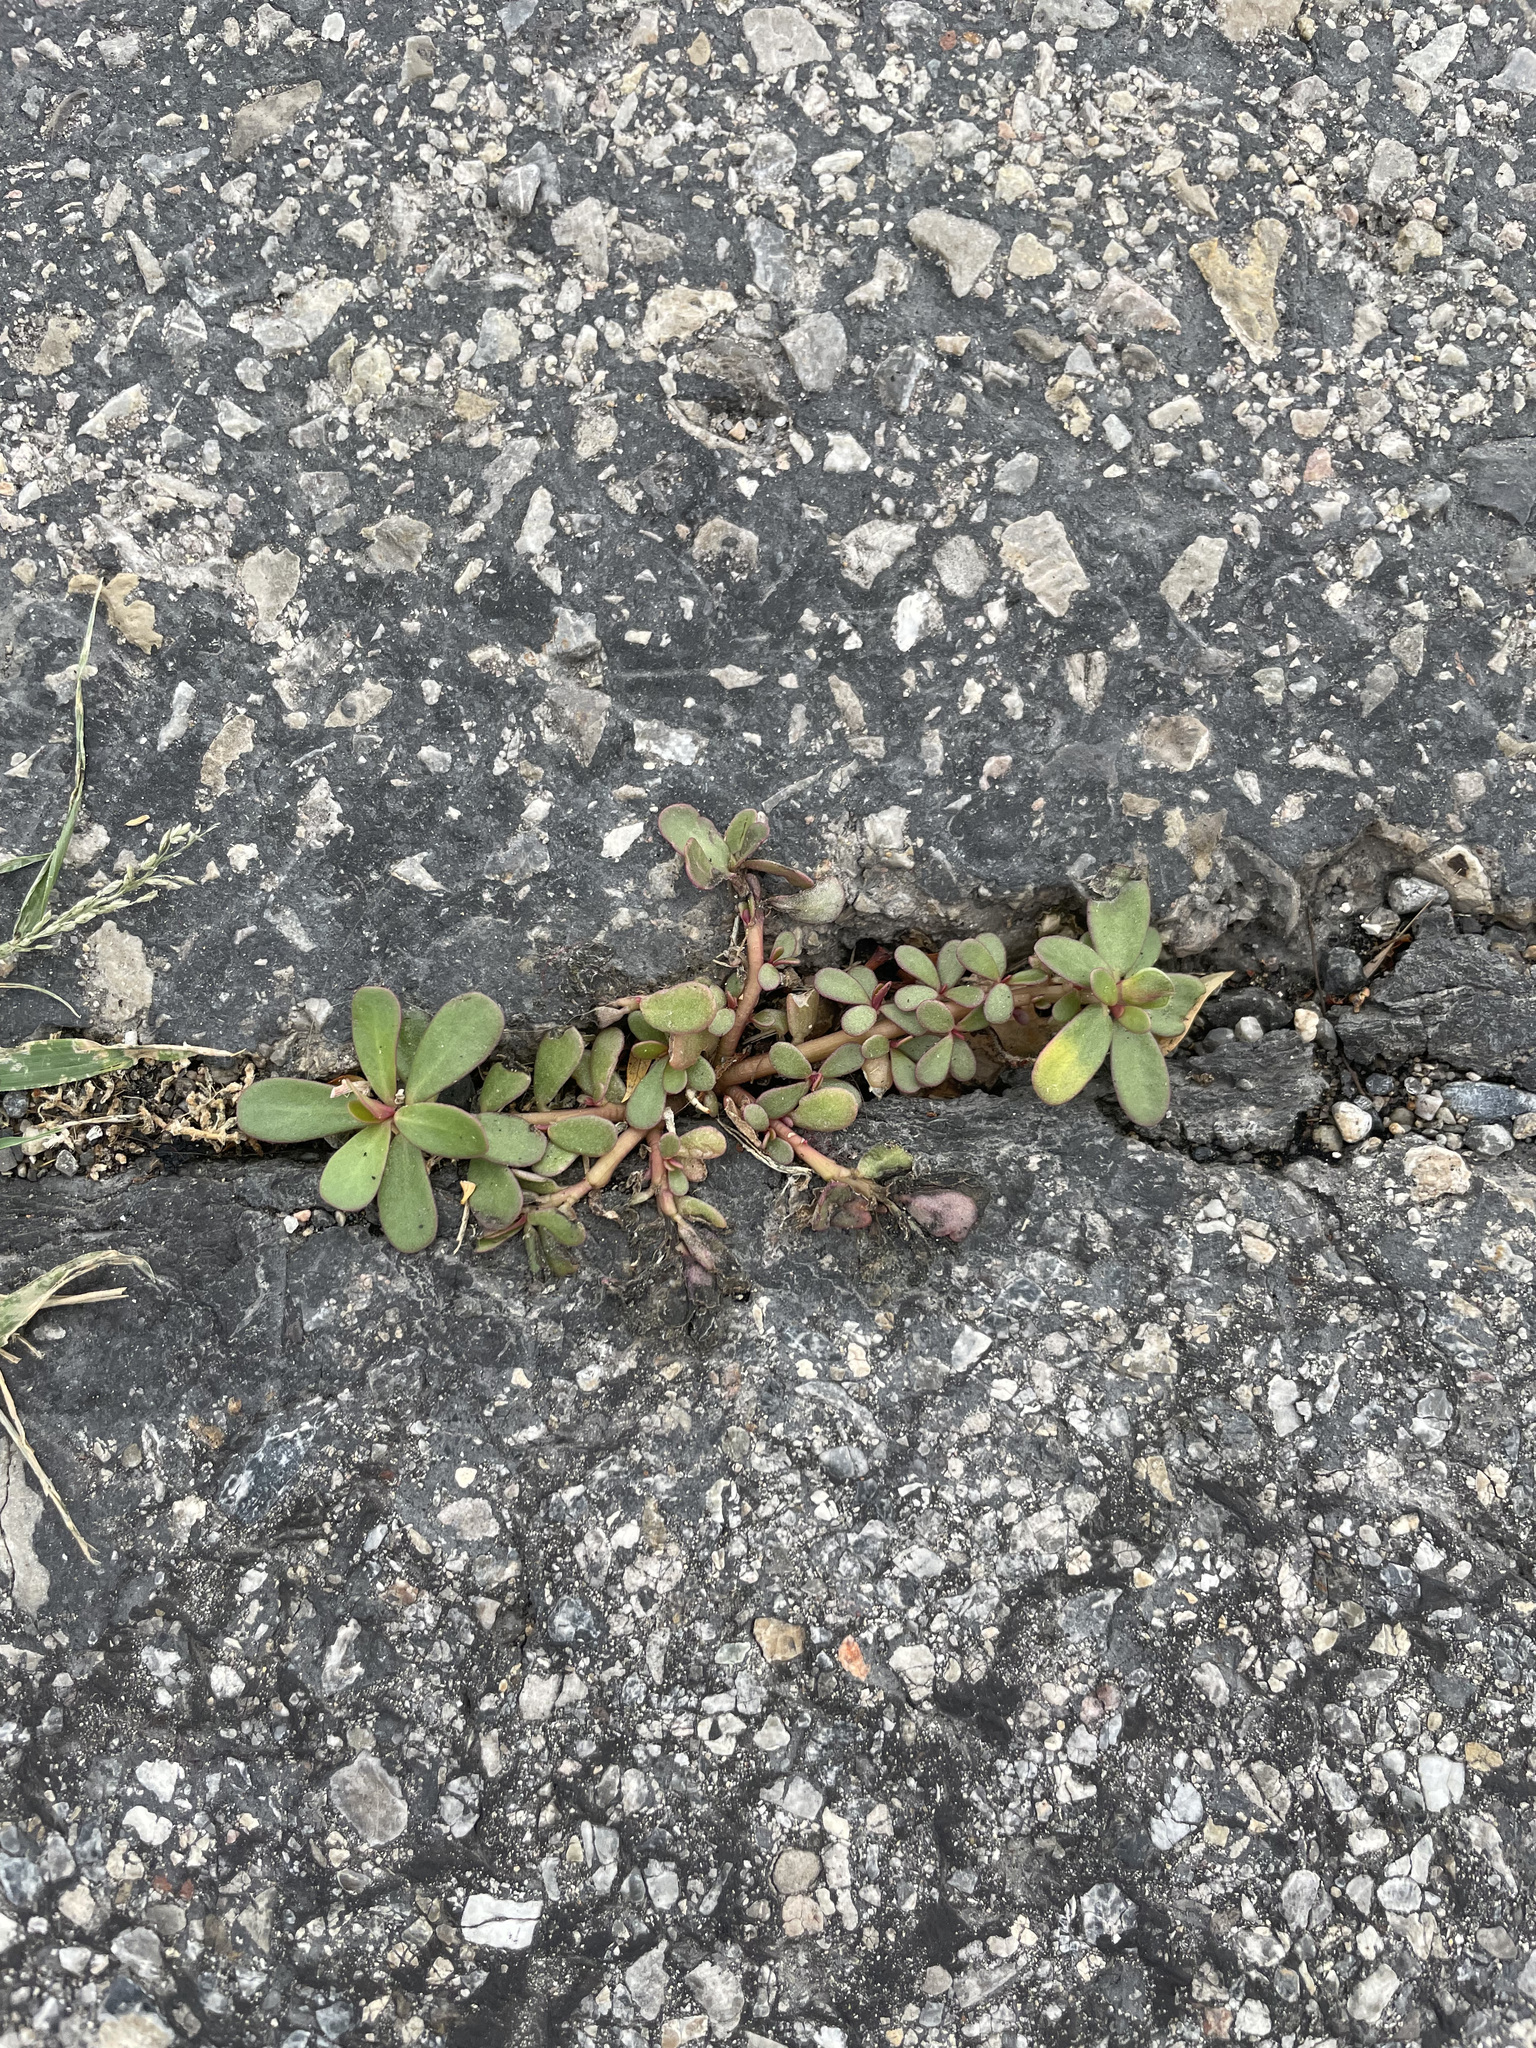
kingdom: Plantae
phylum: Tracheophyta
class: Magnoliopsida
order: Caryophyllales
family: Portulacaceae
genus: Portulaca
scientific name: Portulaca oleracea
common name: Common purslane
